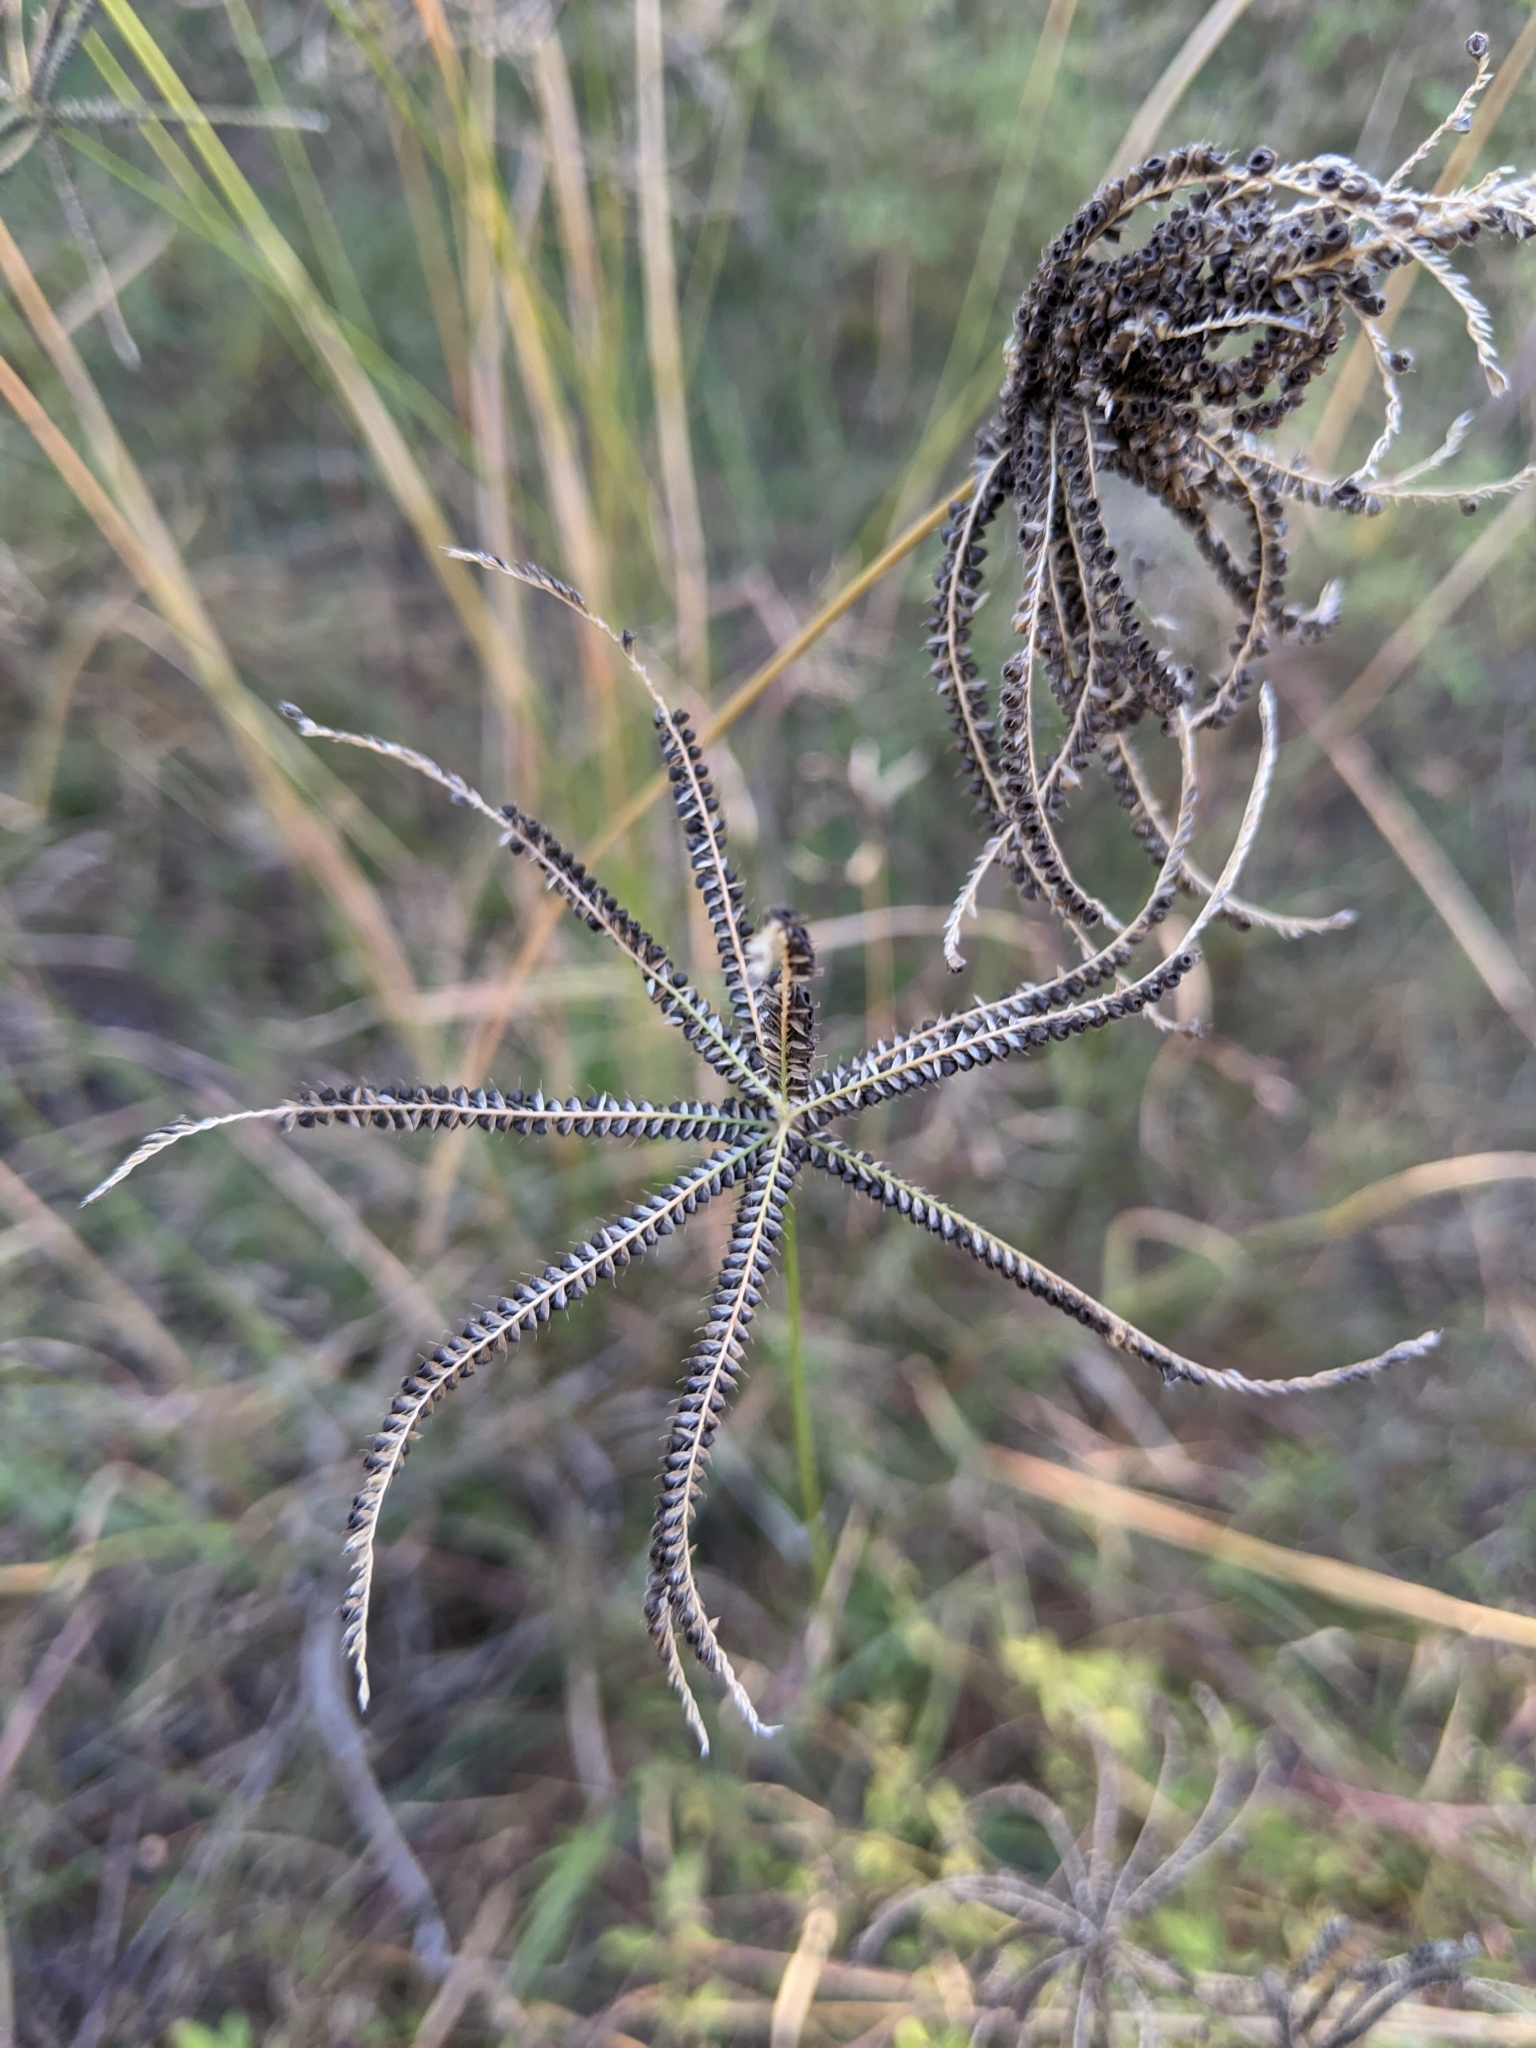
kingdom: Plantae
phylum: Tracheophyta
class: Liliopsida
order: Poales
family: Poaceae
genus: Chloris
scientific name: Chloris cucullata
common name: Hooded windmill grass
